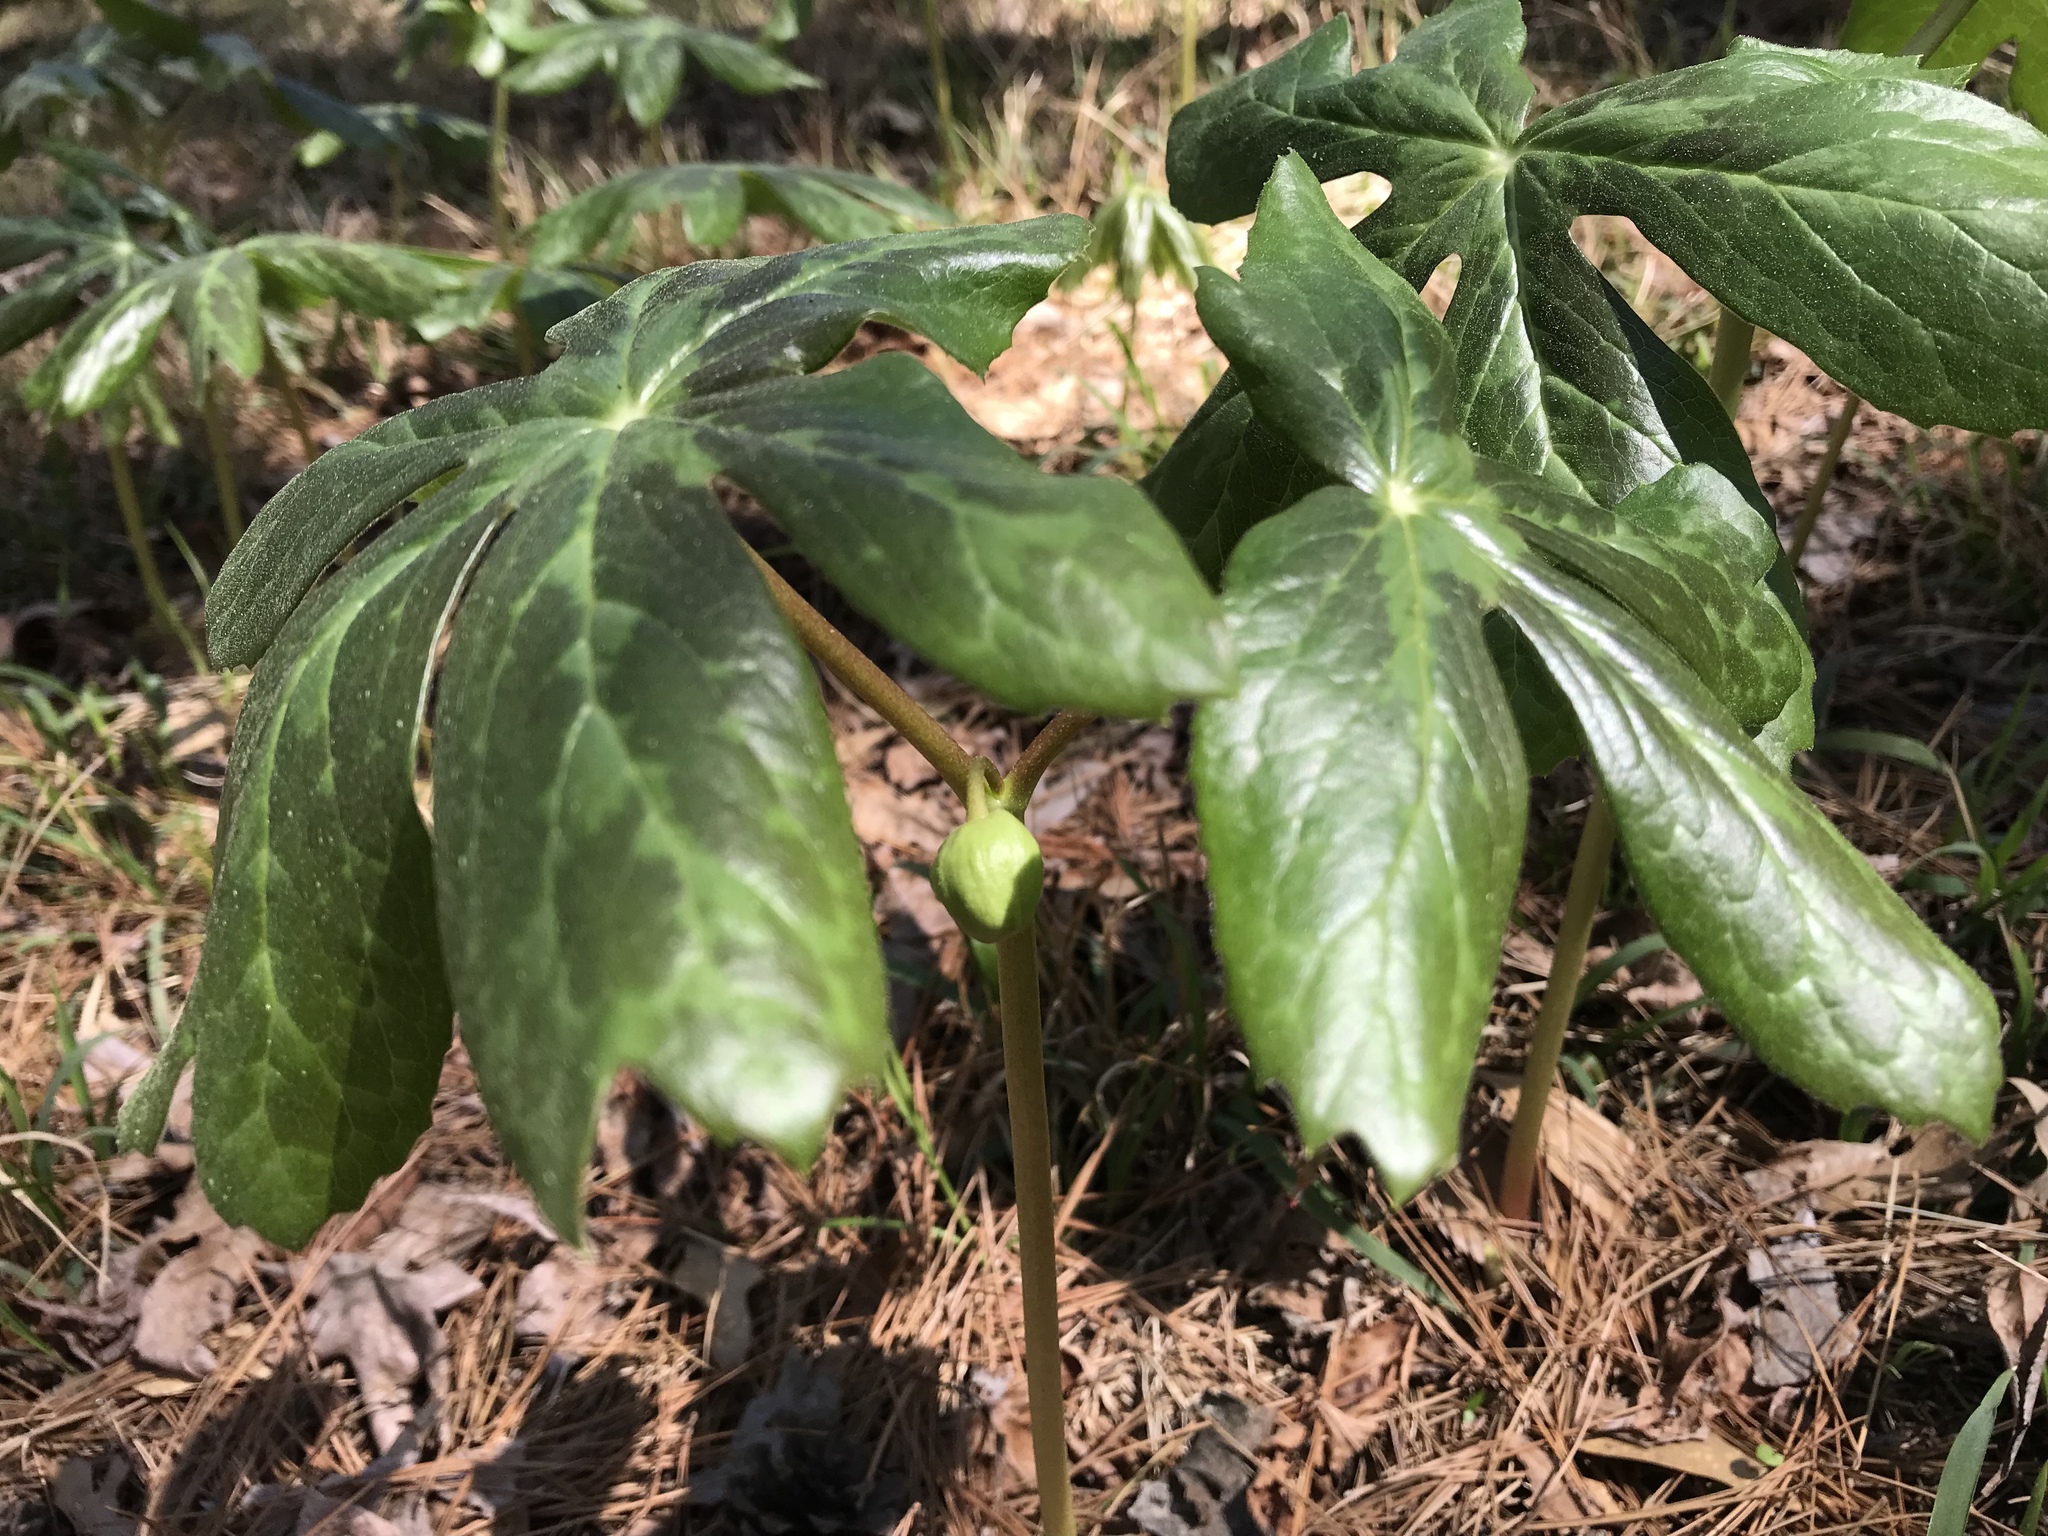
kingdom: Plantae
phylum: Tracheophyta
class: Magnoliopsida
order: Ranunculales
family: Berberidaceae
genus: Podophyllum
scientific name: Podophyllum peltatum
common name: Wild mandrake
